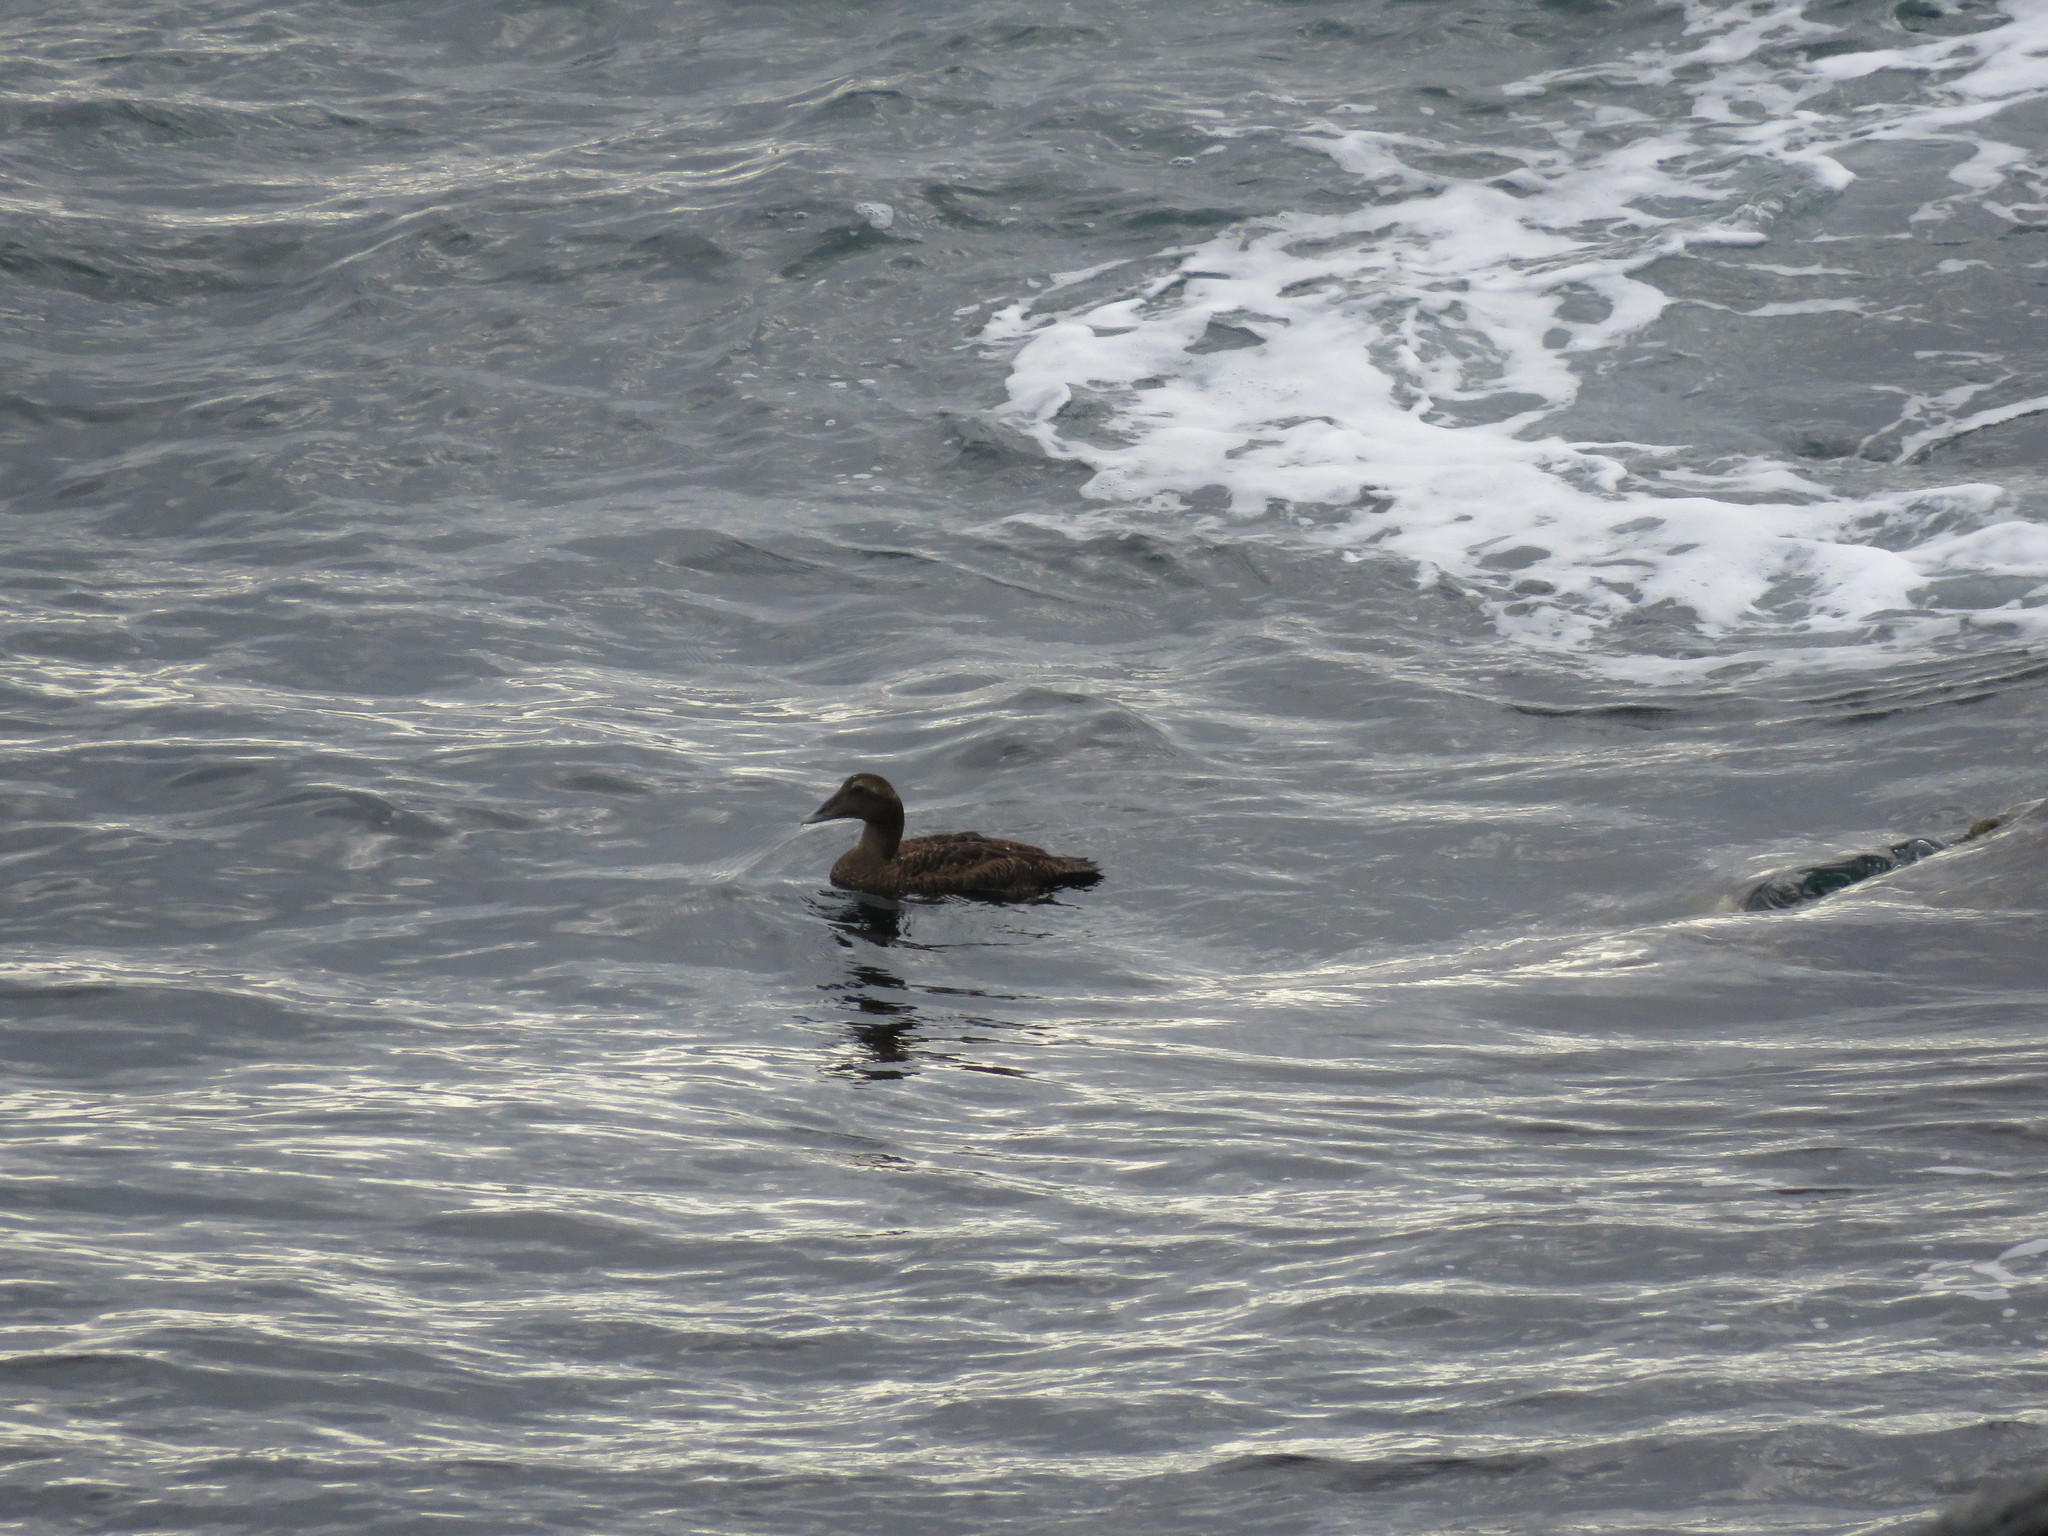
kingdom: Animalia
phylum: Chordata
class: Aves
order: Anseriformes
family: Anatidae
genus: Somateria
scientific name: Somateria mollissima
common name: Common eider
